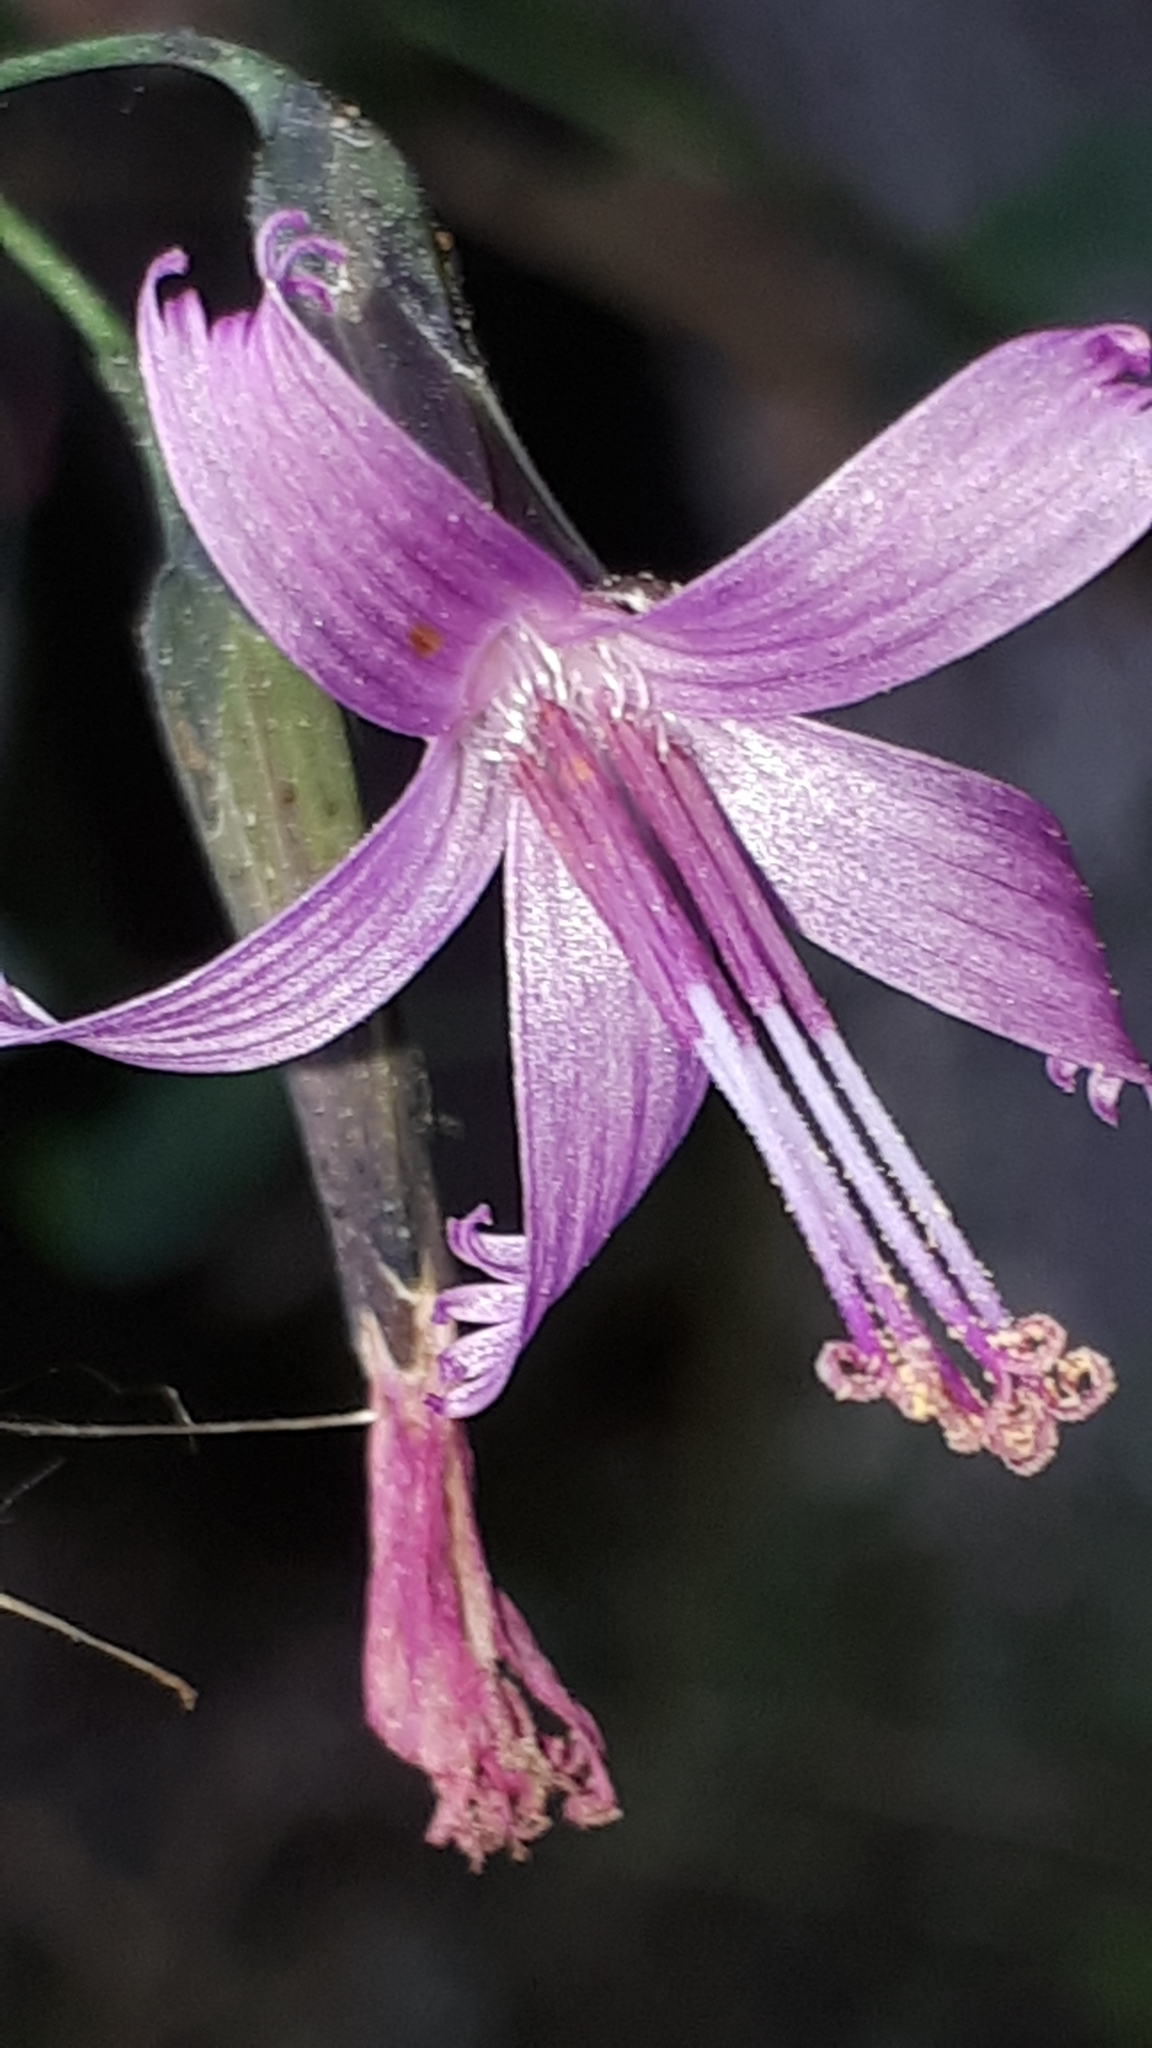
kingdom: Plantae
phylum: Tracheophyta
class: Magnoliopsida
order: Asterales
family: Asteraceae
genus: Prenanthes
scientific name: Prenanthes purpurea
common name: Purple lettuce
